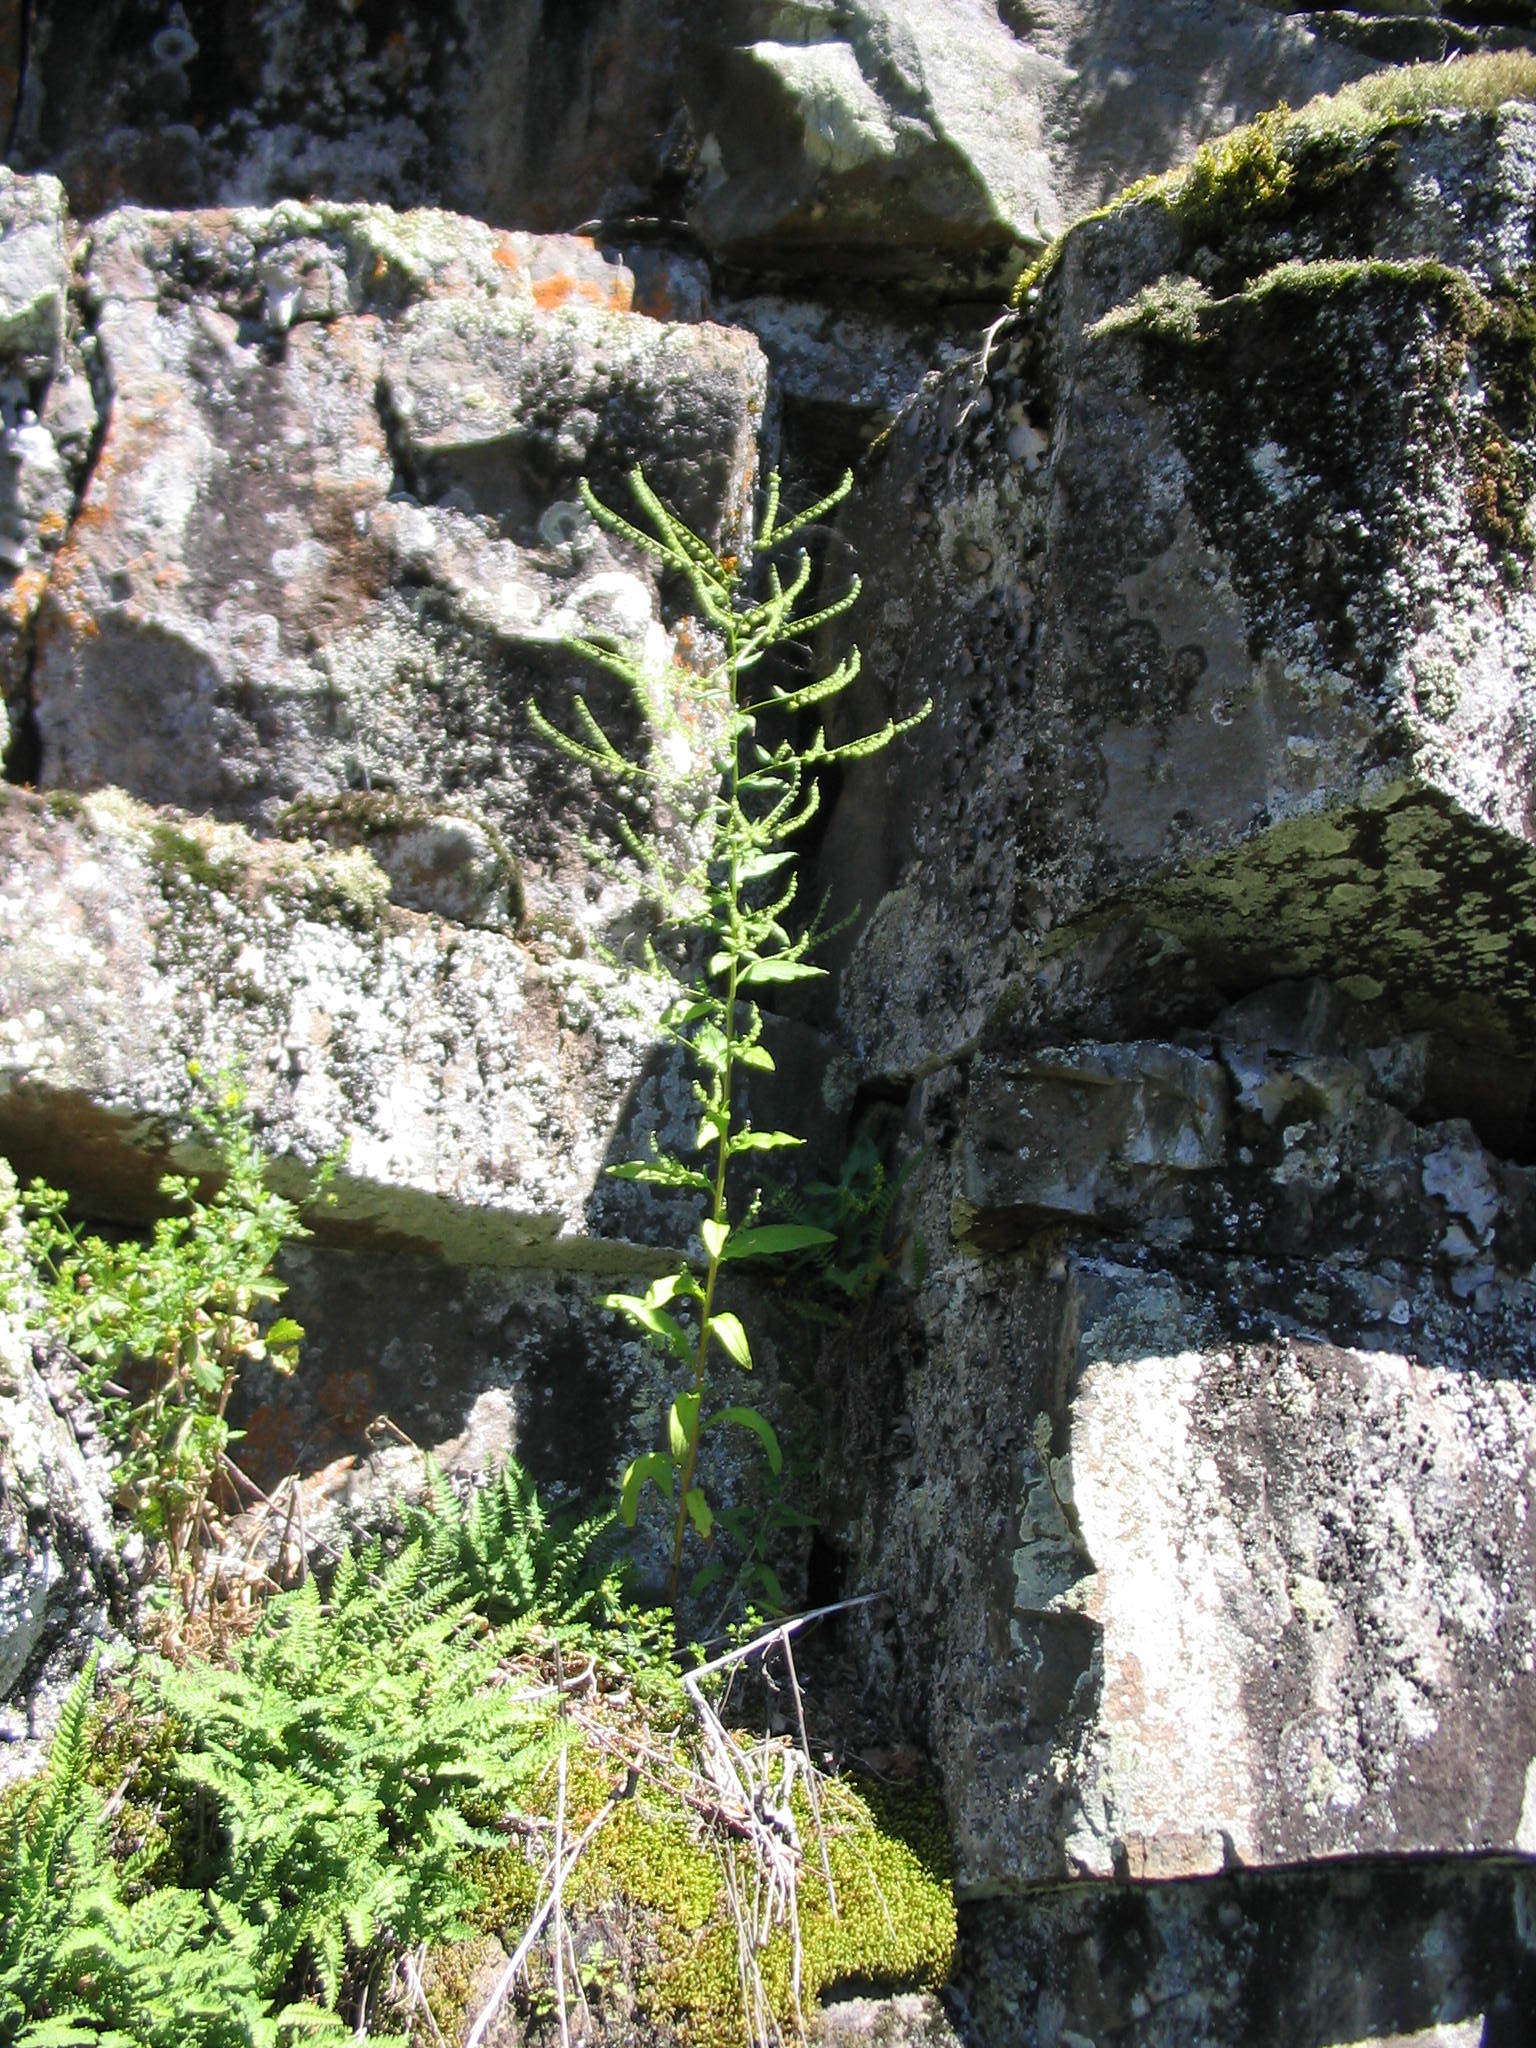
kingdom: Plantae
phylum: Tracheophyta
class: Magnoliopsida
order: Boraginales
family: Boraginaceae
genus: Hackelia
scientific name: Hackelia deflexa
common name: Nodding stickseed
